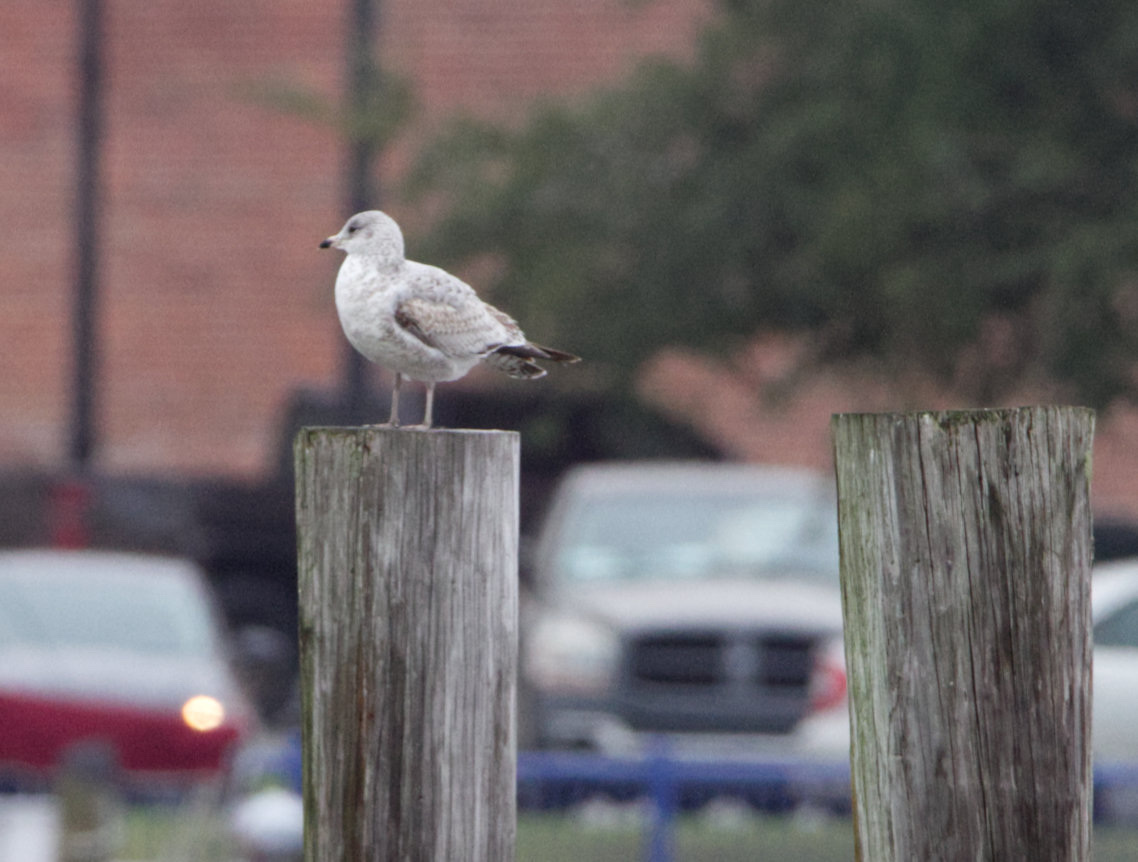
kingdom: Animalia
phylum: Chordata
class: Aves
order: Charadriiformes
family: Laridae
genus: Larus
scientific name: Larus delawarensis
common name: Ring-billed gull
